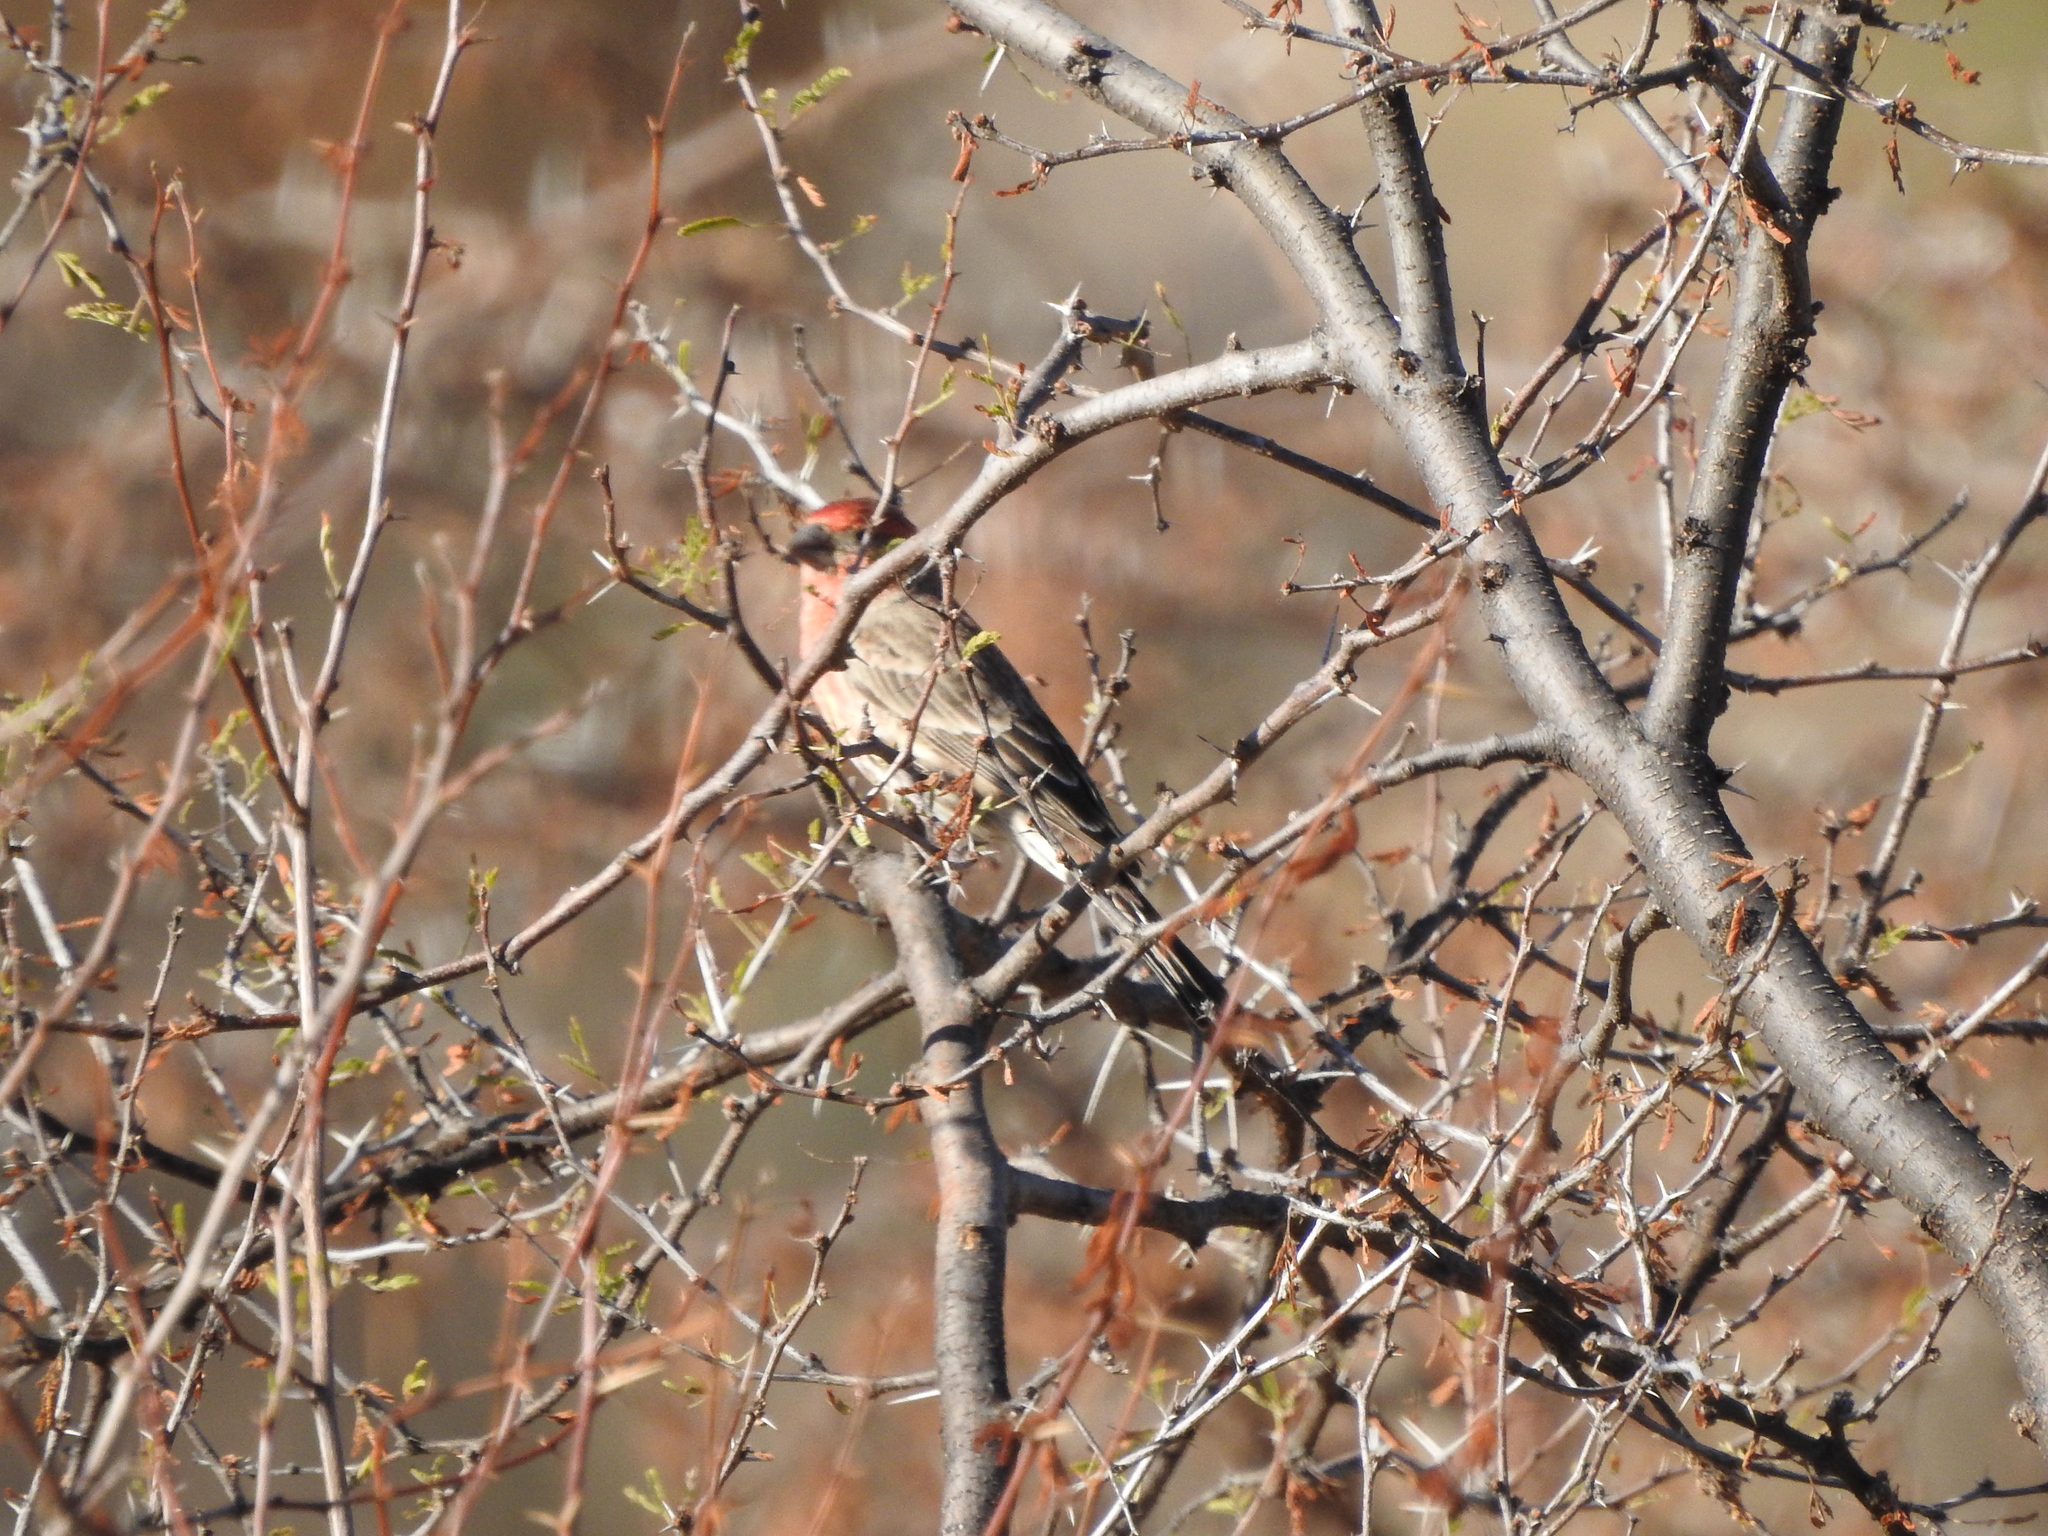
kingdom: Animalia
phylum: Chordata
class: Aves
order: Passeriformes
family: Fringillidae
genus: Haemorhous
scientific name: Haemorhous mexicanus
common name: House finch
